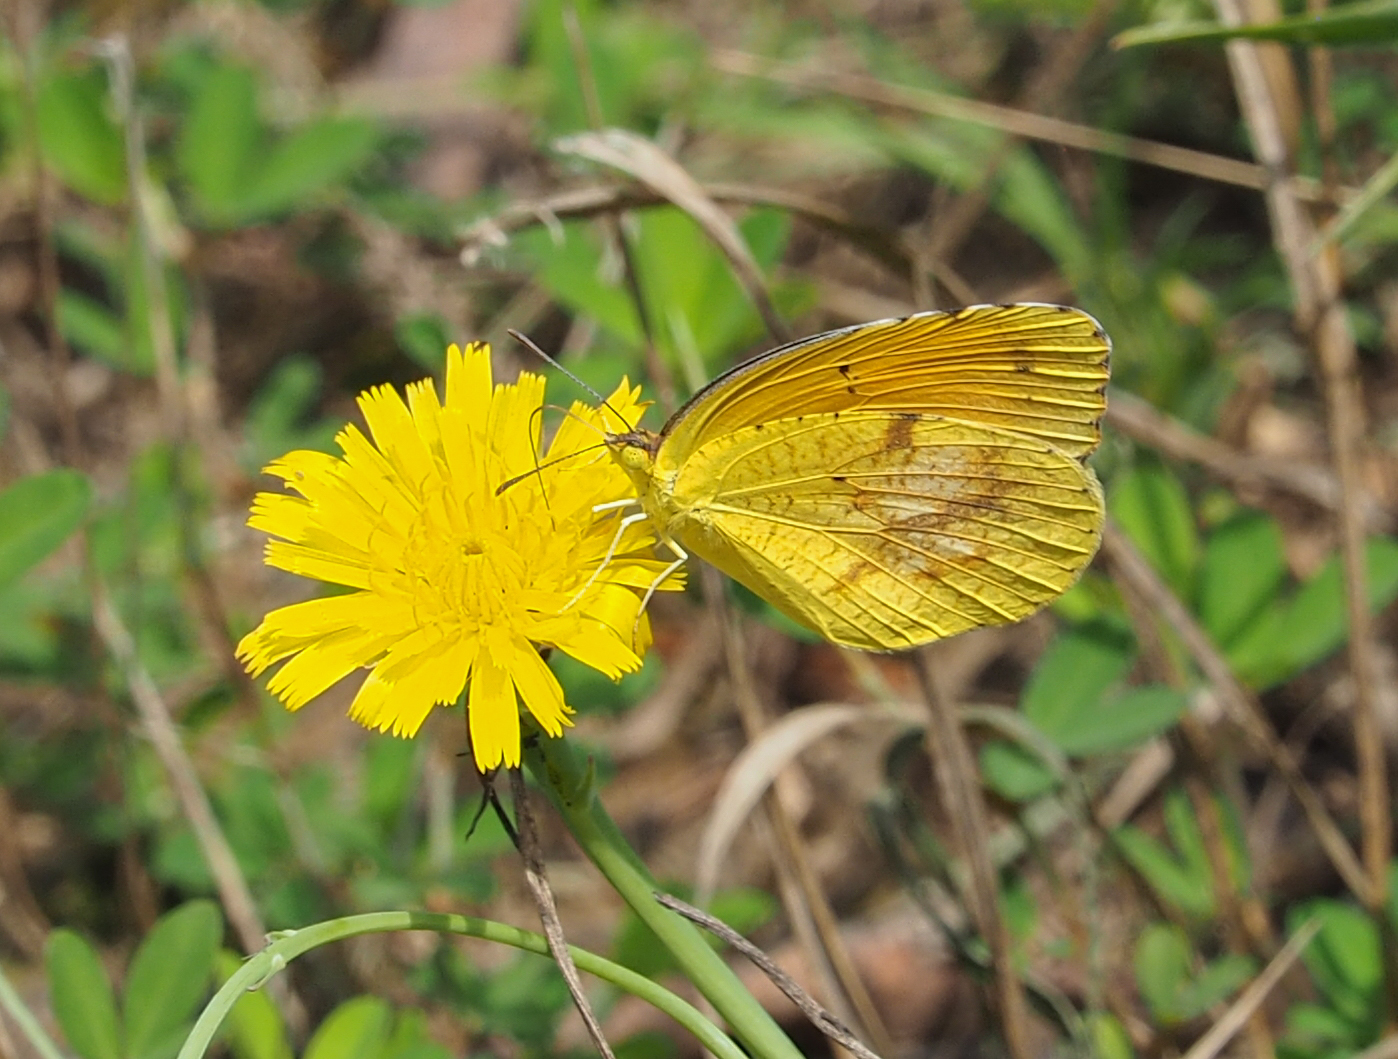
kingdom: Animalia
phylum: Arthropoda
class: Insecta
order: Lepidoptera
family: Pieridae
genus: Abaeis
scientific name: Abaeis nicippe
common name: Sleepy orange
